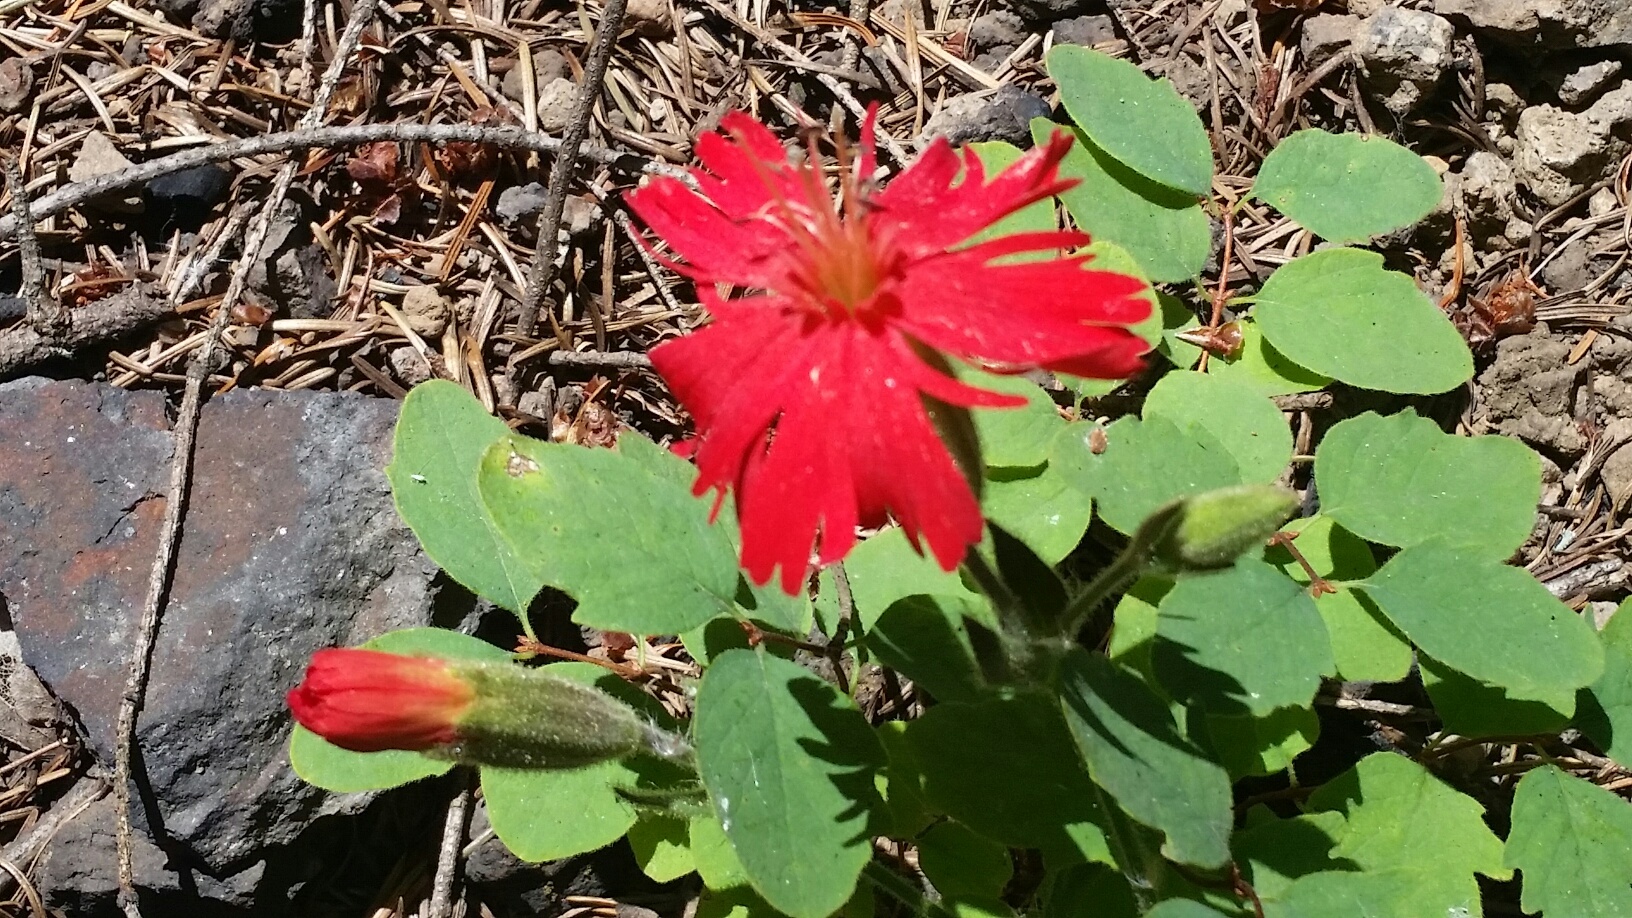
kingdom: Plantae
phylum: Tracheophyta
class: Magnoliopsida
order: Caryophyllales
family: Caryophyllaceae
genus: Silene
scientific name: Silene laciniata
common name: Indian-pink
